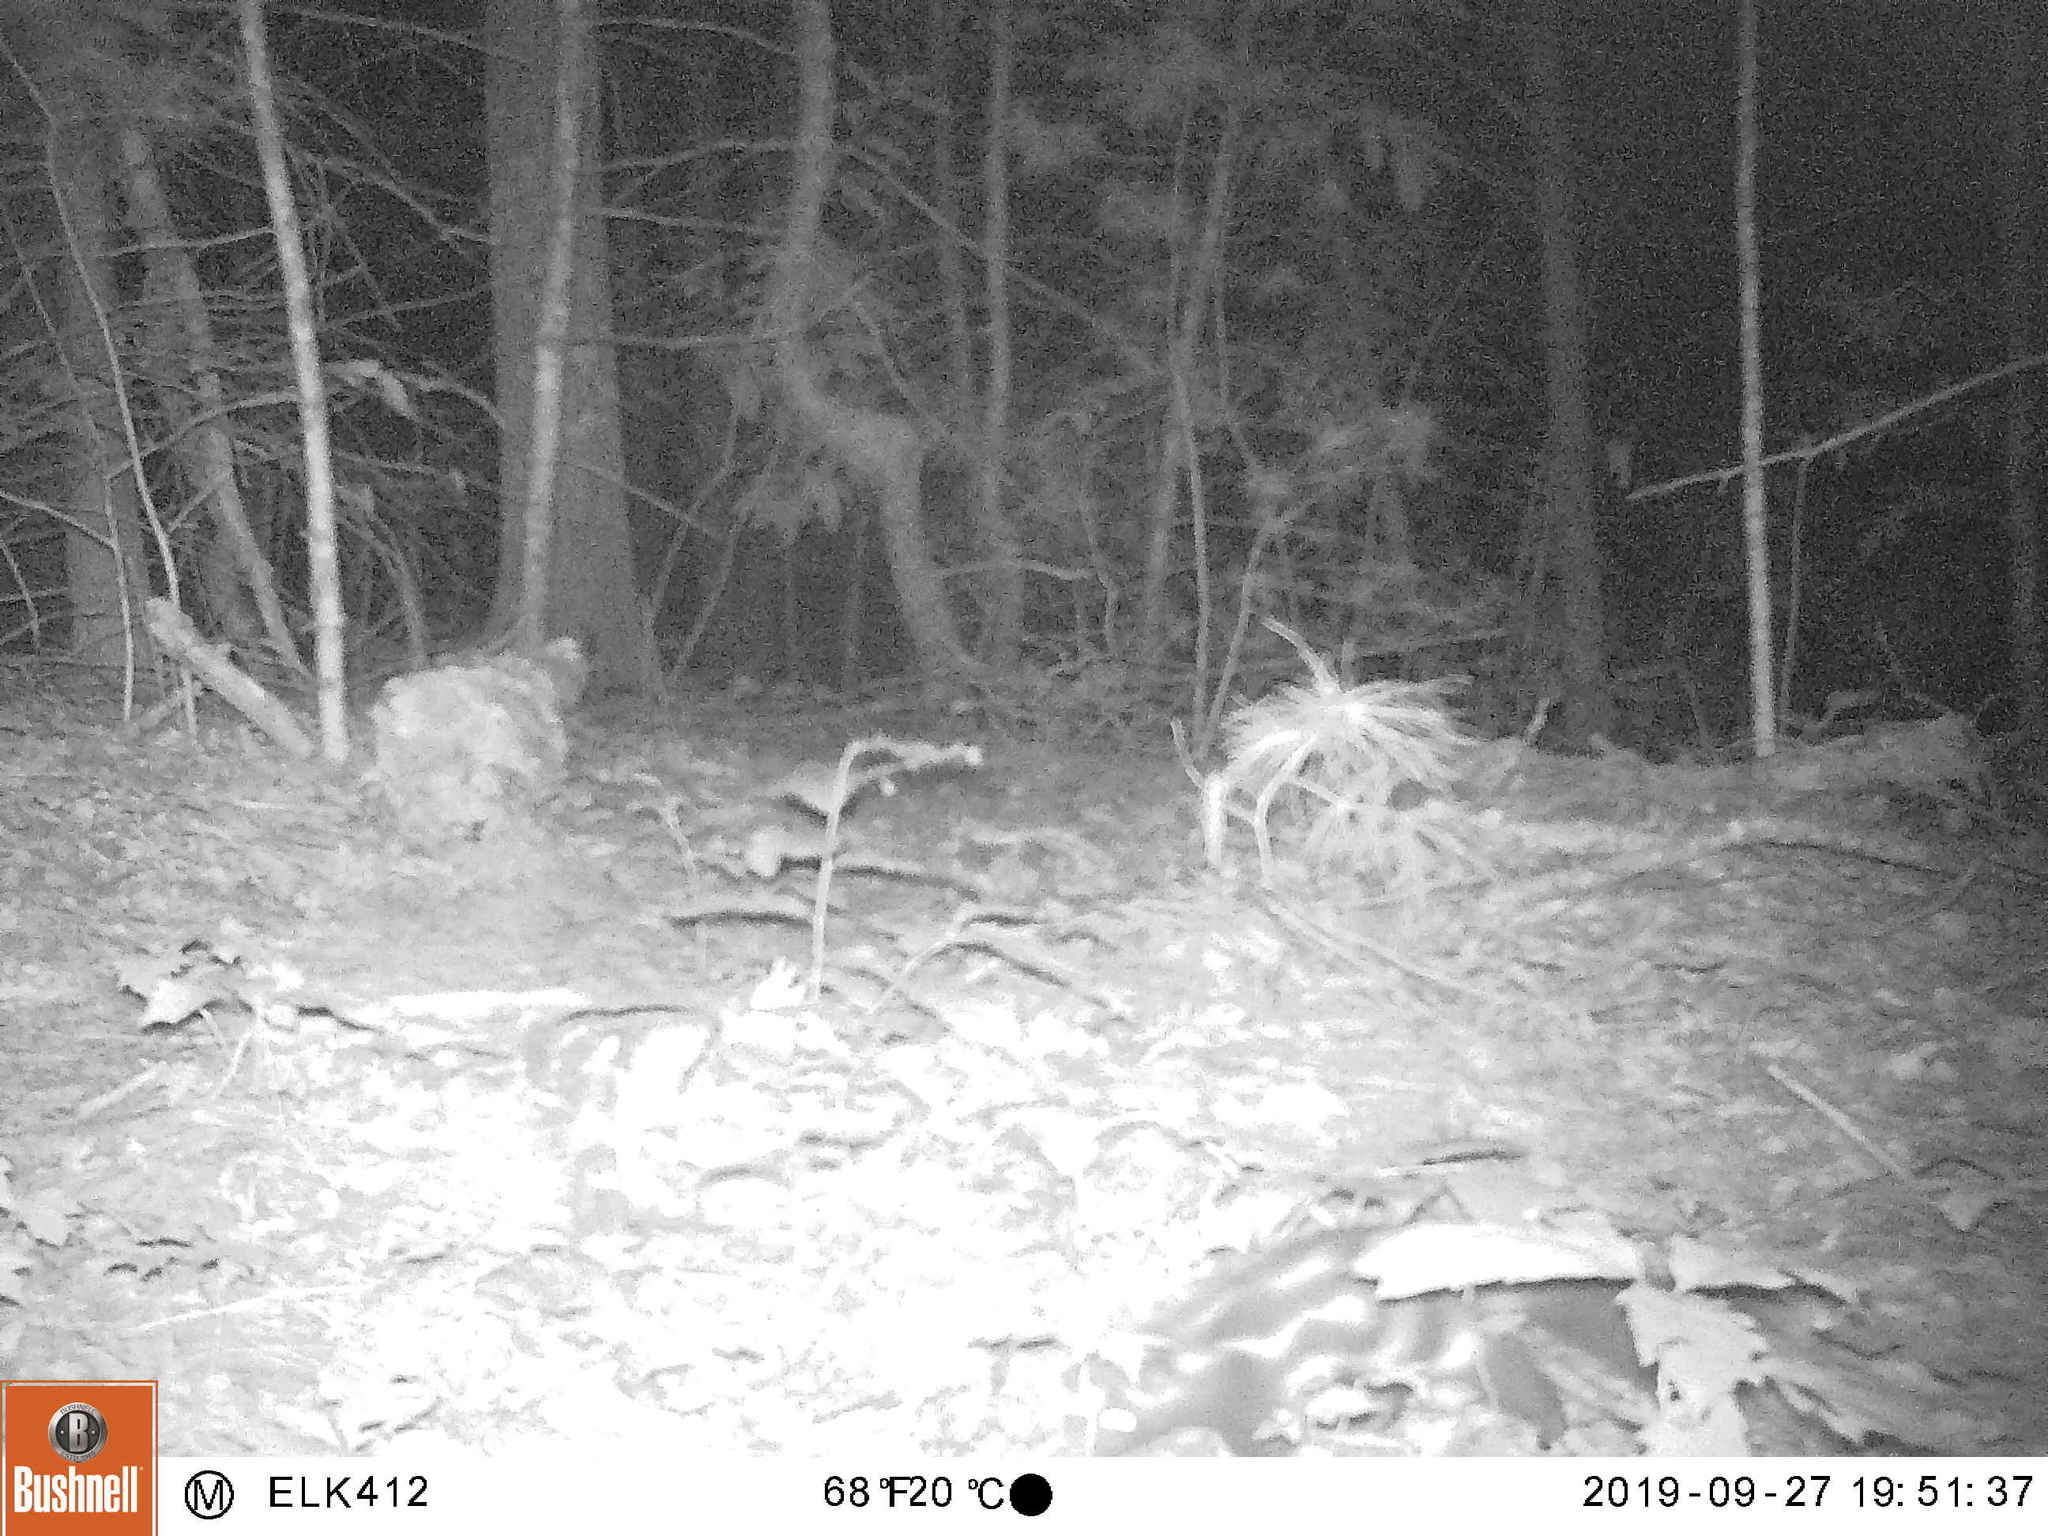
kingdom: Animalia
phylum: Chordata
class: Mammalia
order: Carnivora
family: Mephitidae
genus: Spilogale
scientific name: Spilogale putorius
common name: Eastern spotted skunk
